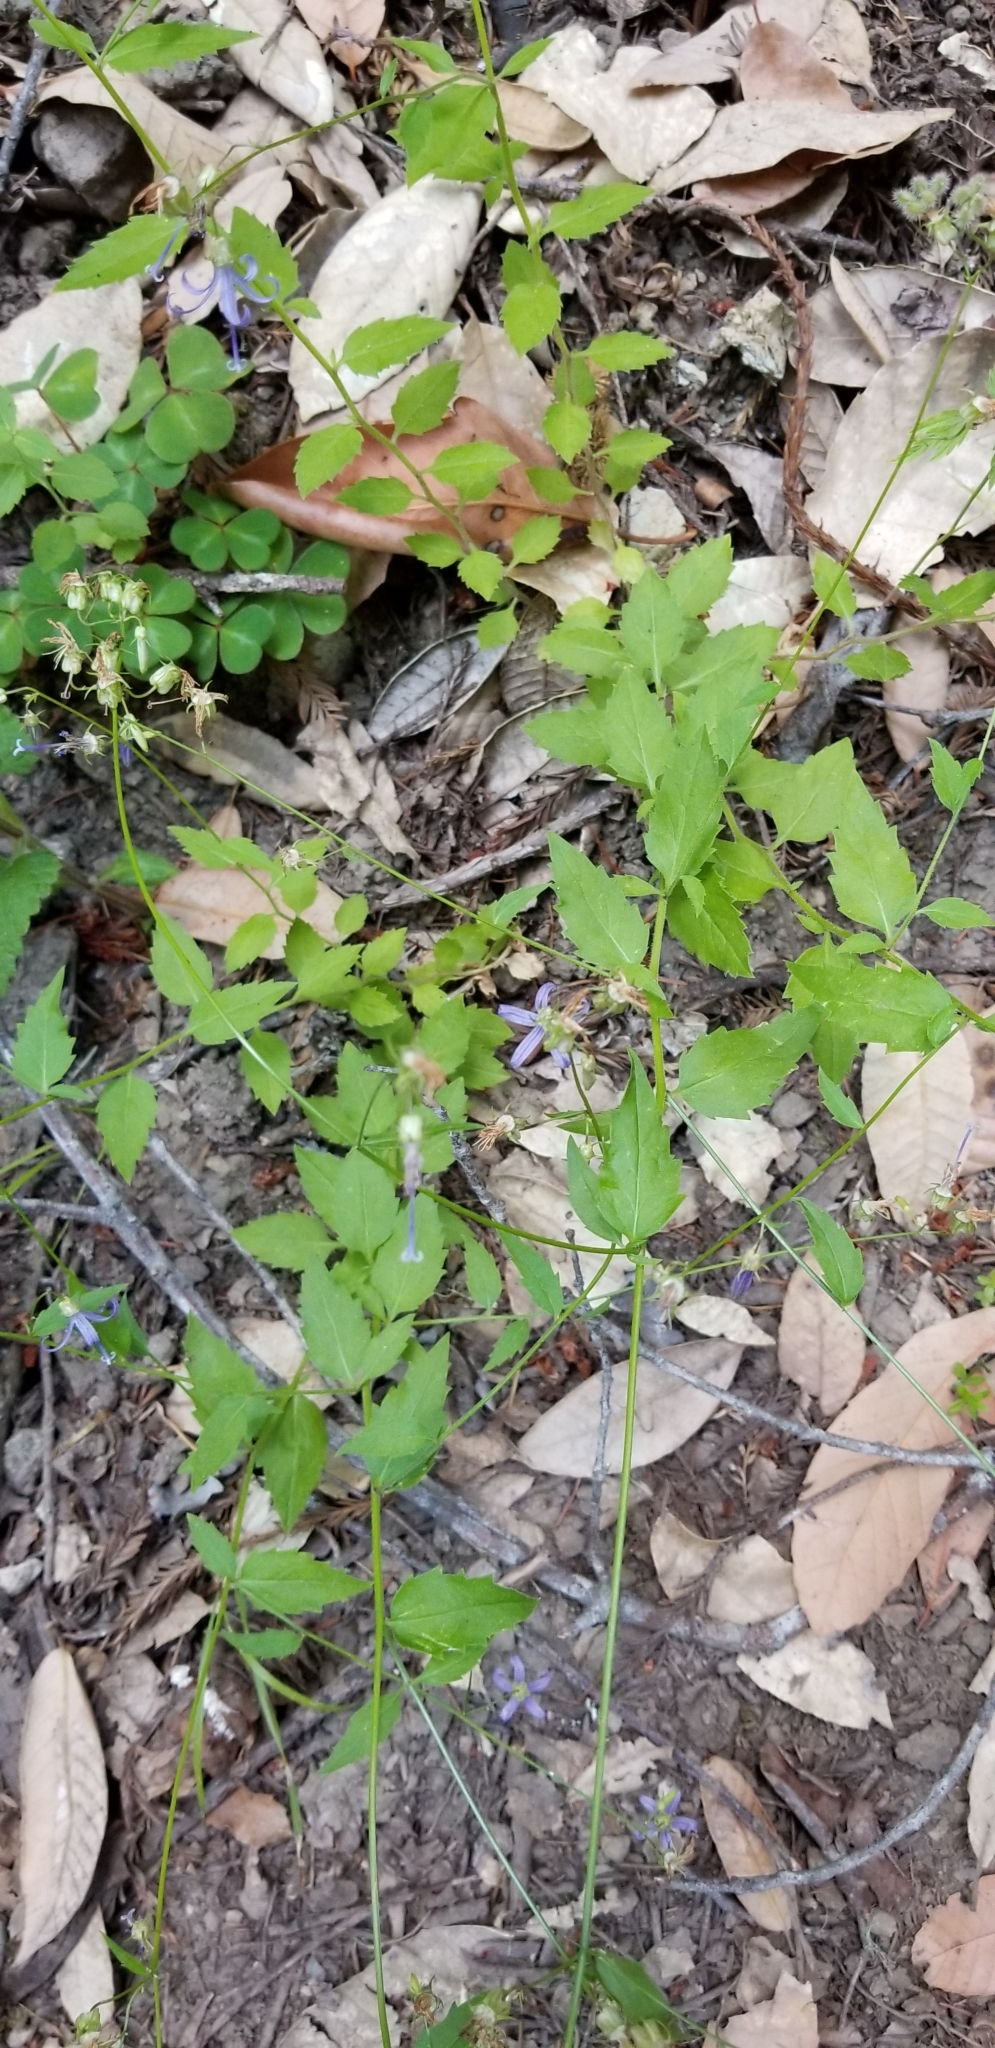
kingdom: Plantae
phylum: Tracheophyta
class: Magnoliopsida
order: Asterales
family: Campanulaceae
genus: Smithiastrum
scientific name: Smithiastrum prenanthoides
